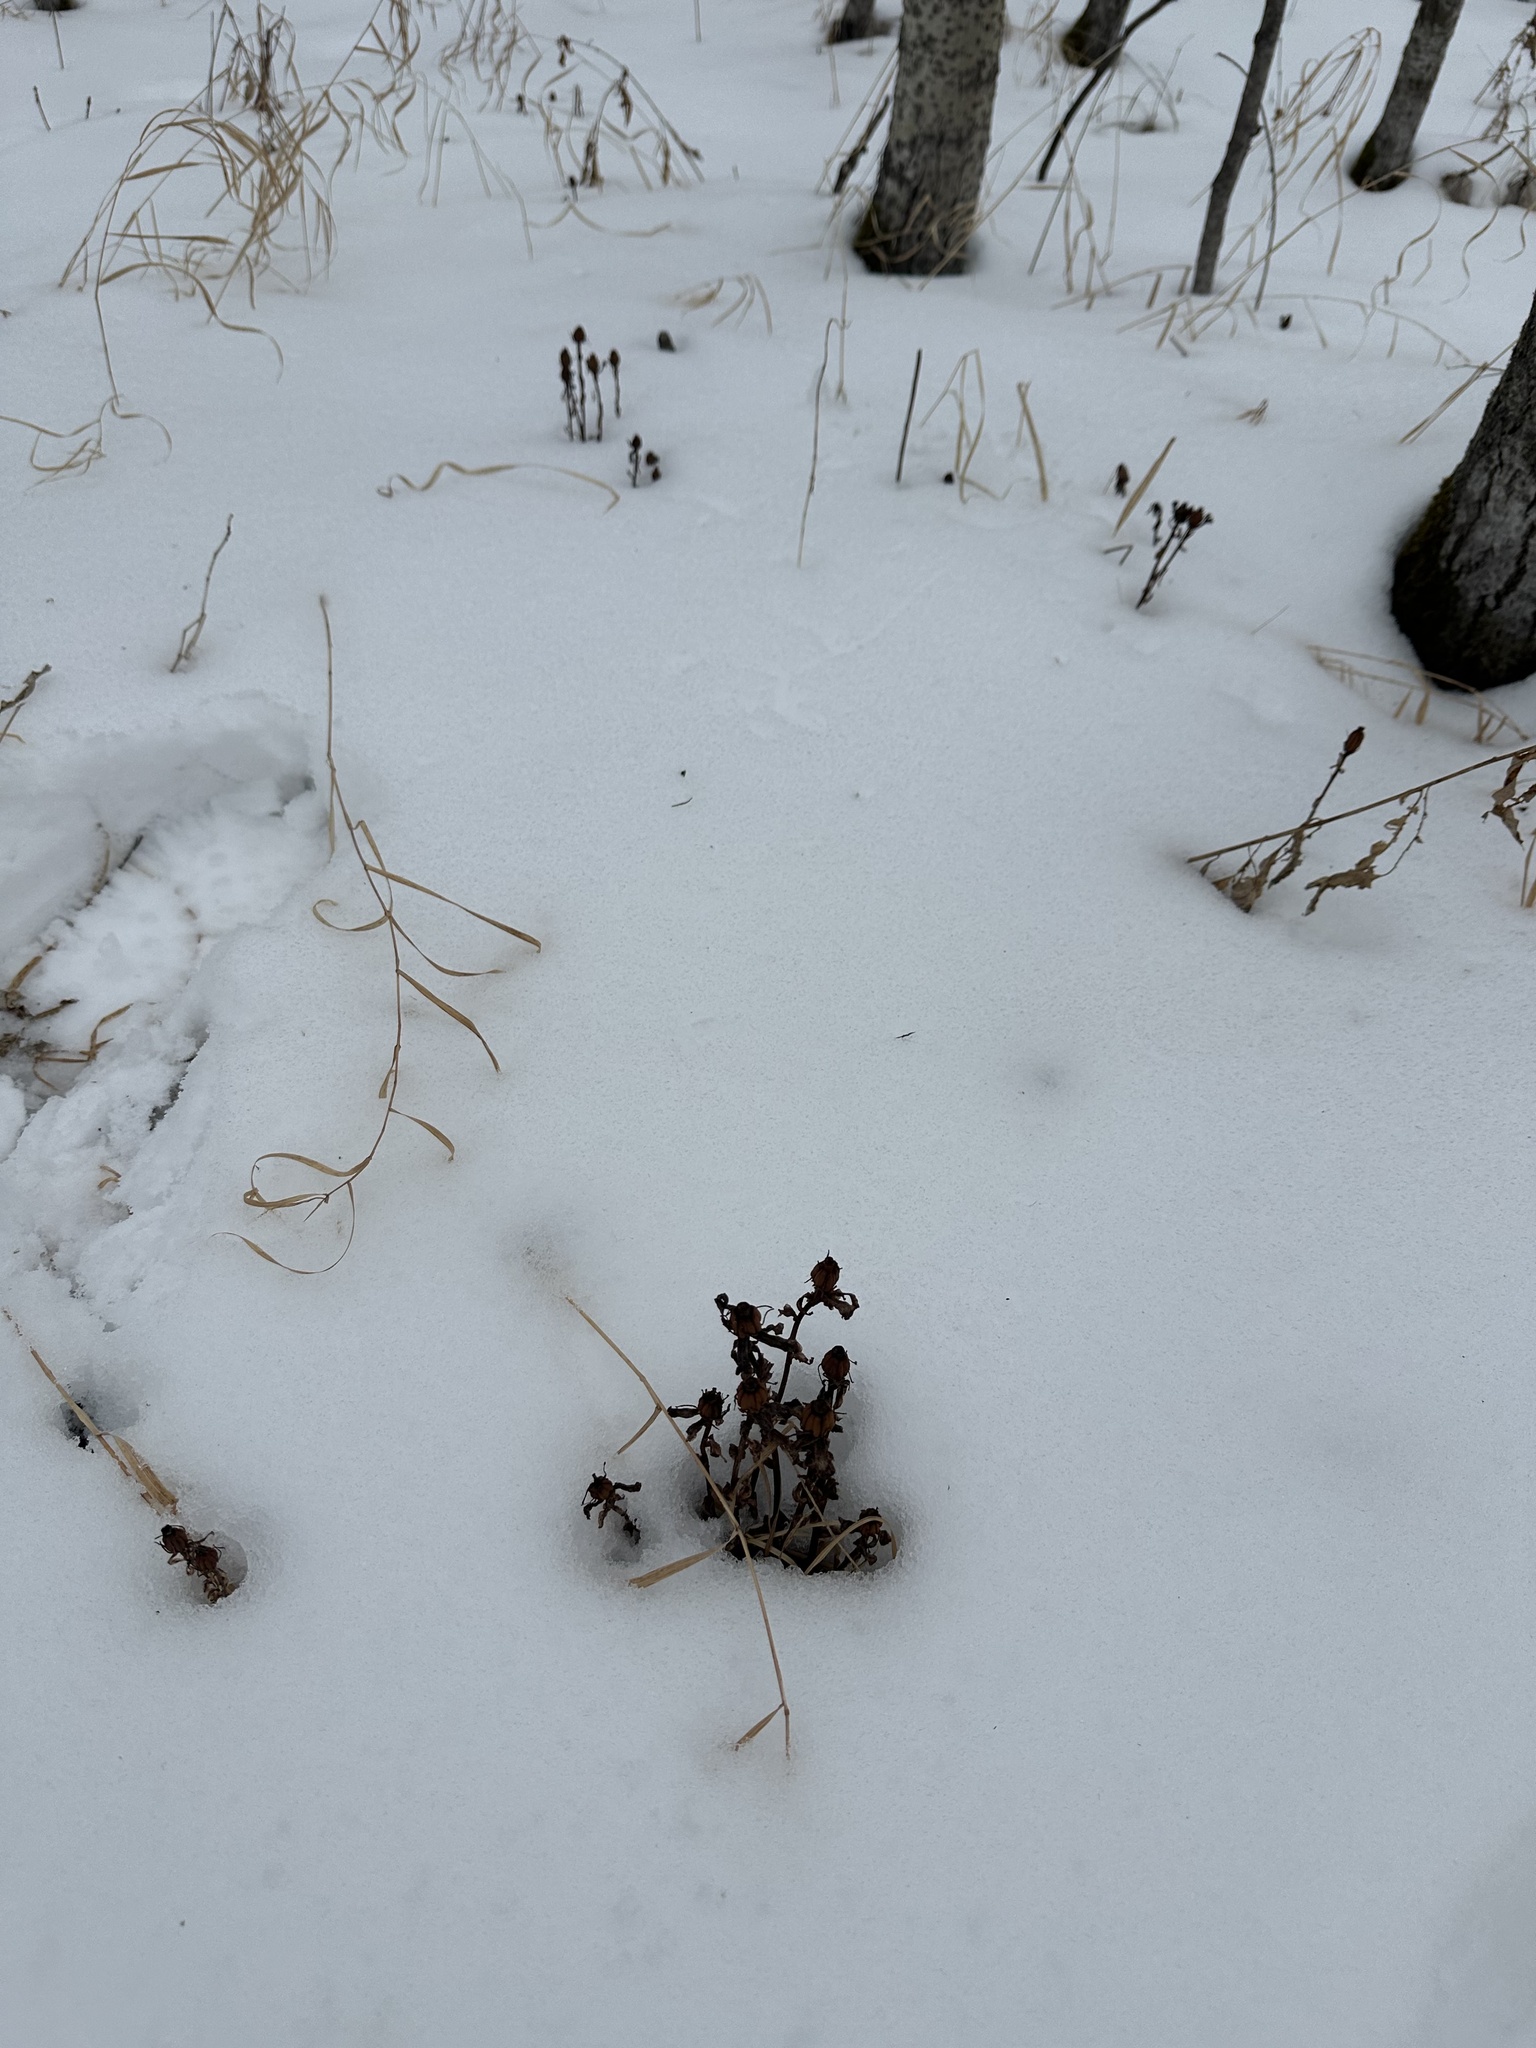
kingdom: Plantae
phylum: Tracheophyta
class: Magnoliopsida
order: Ericales
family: Ericaceae
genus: Monotropa
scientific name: Monotropa uniflora
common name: Convulsion root
